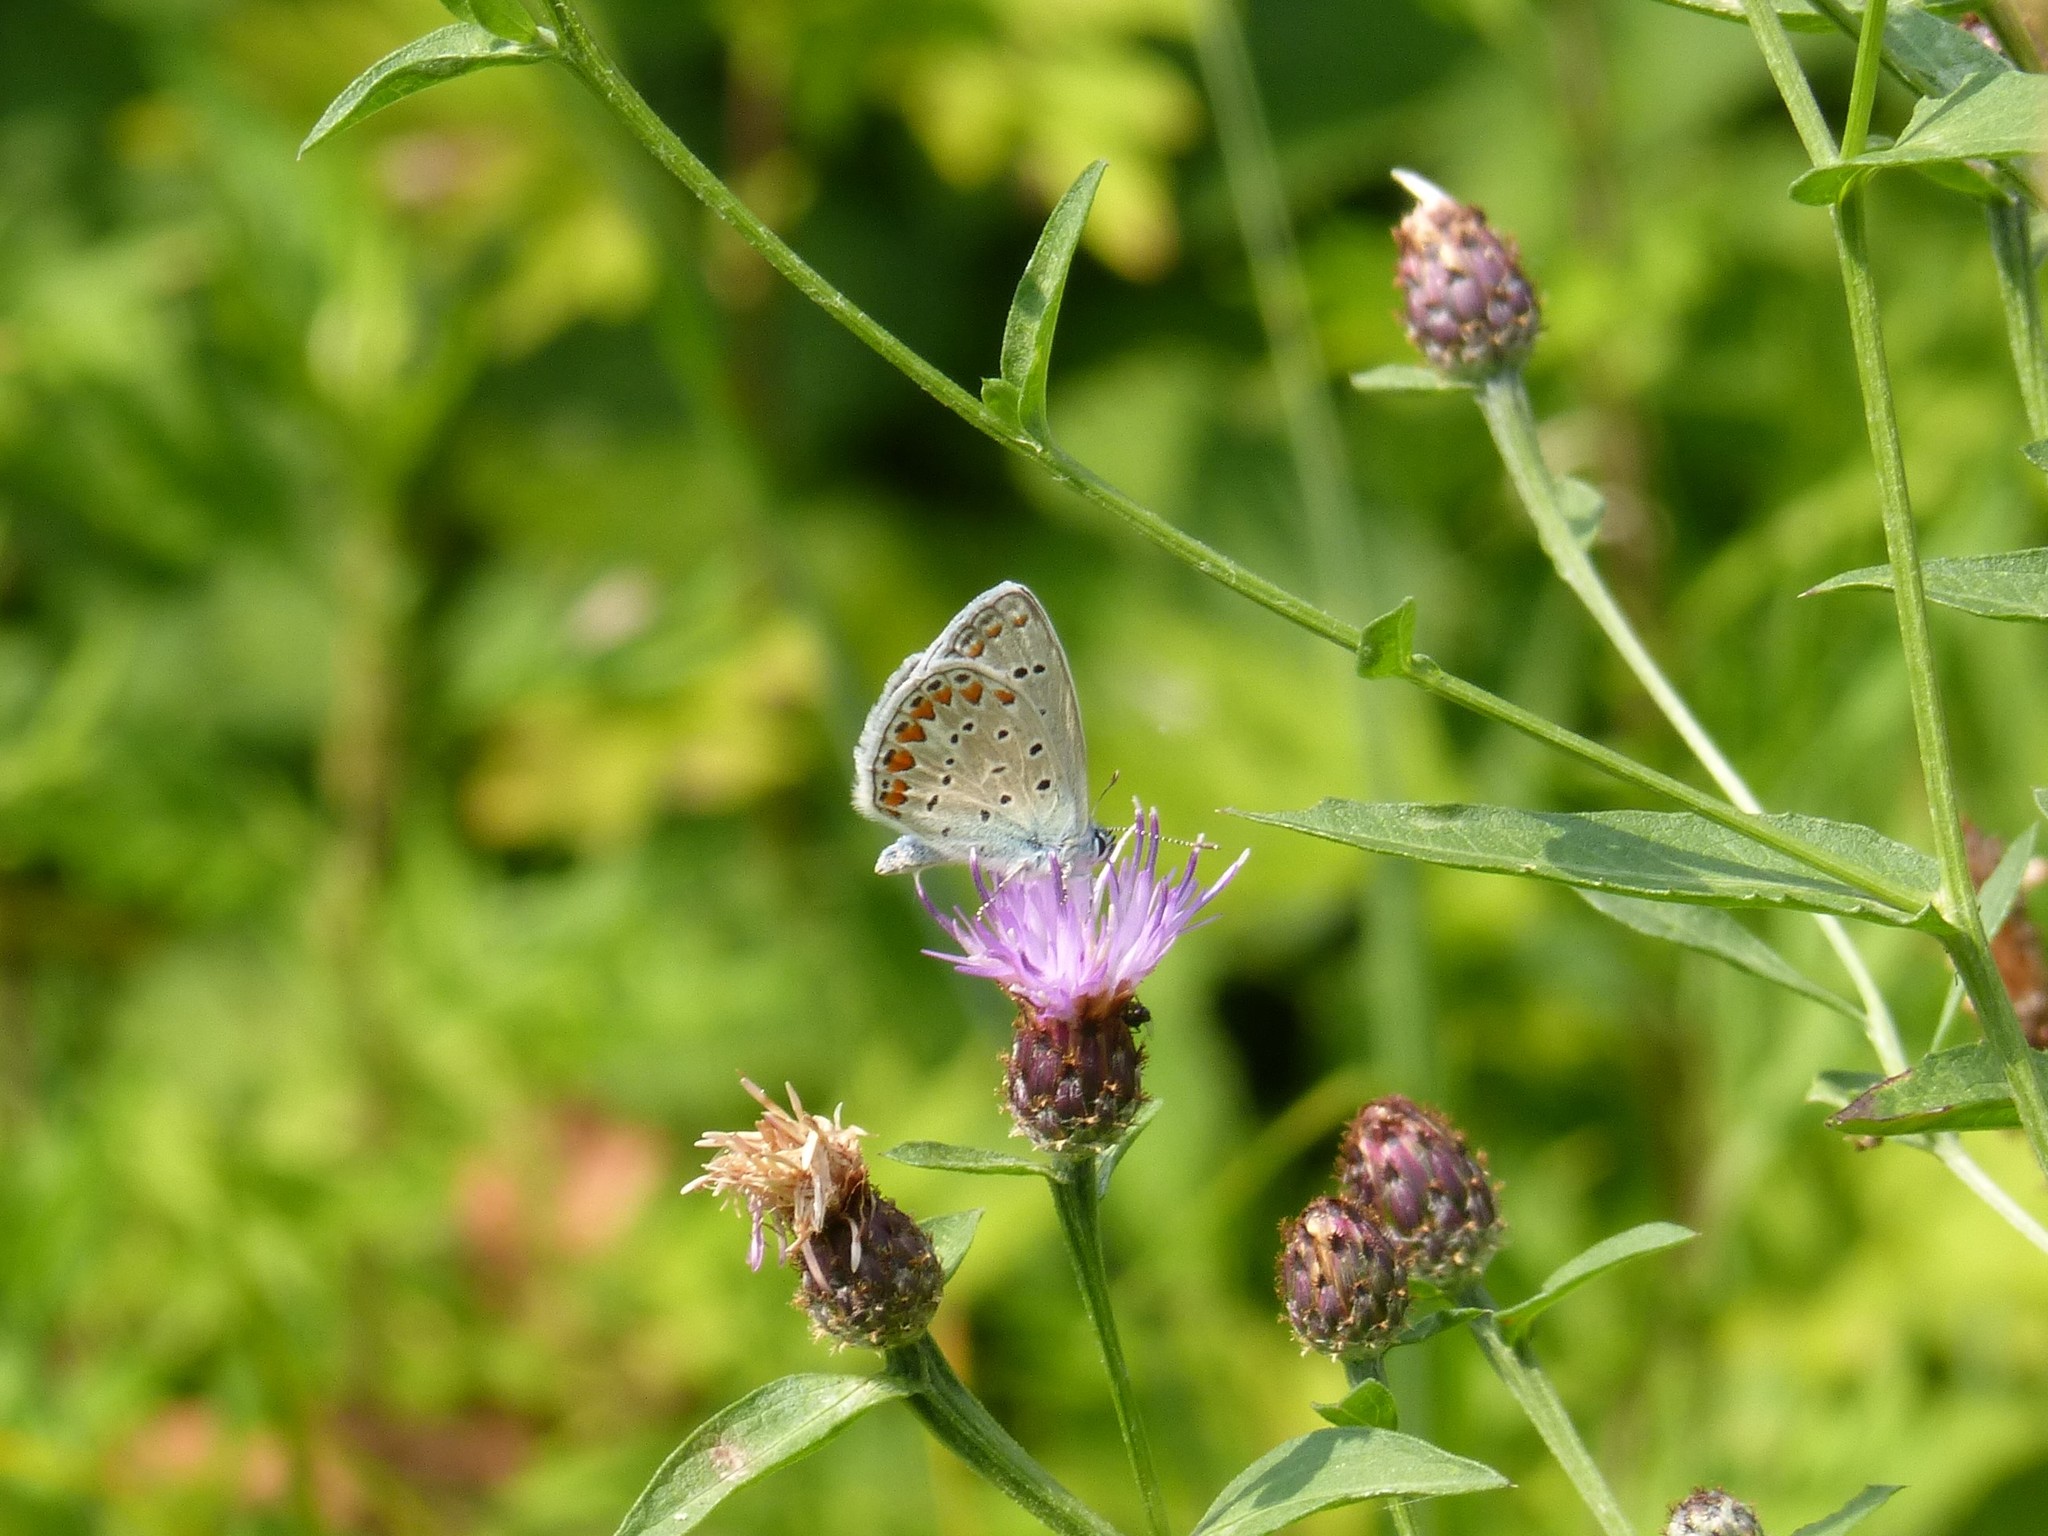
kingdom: Animalia
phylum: Arthropoda
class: Insecta
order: Lepidoptera
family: Lycaenidae
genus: Polyommatus
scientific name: Polyommatus icarus
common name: Common blue
